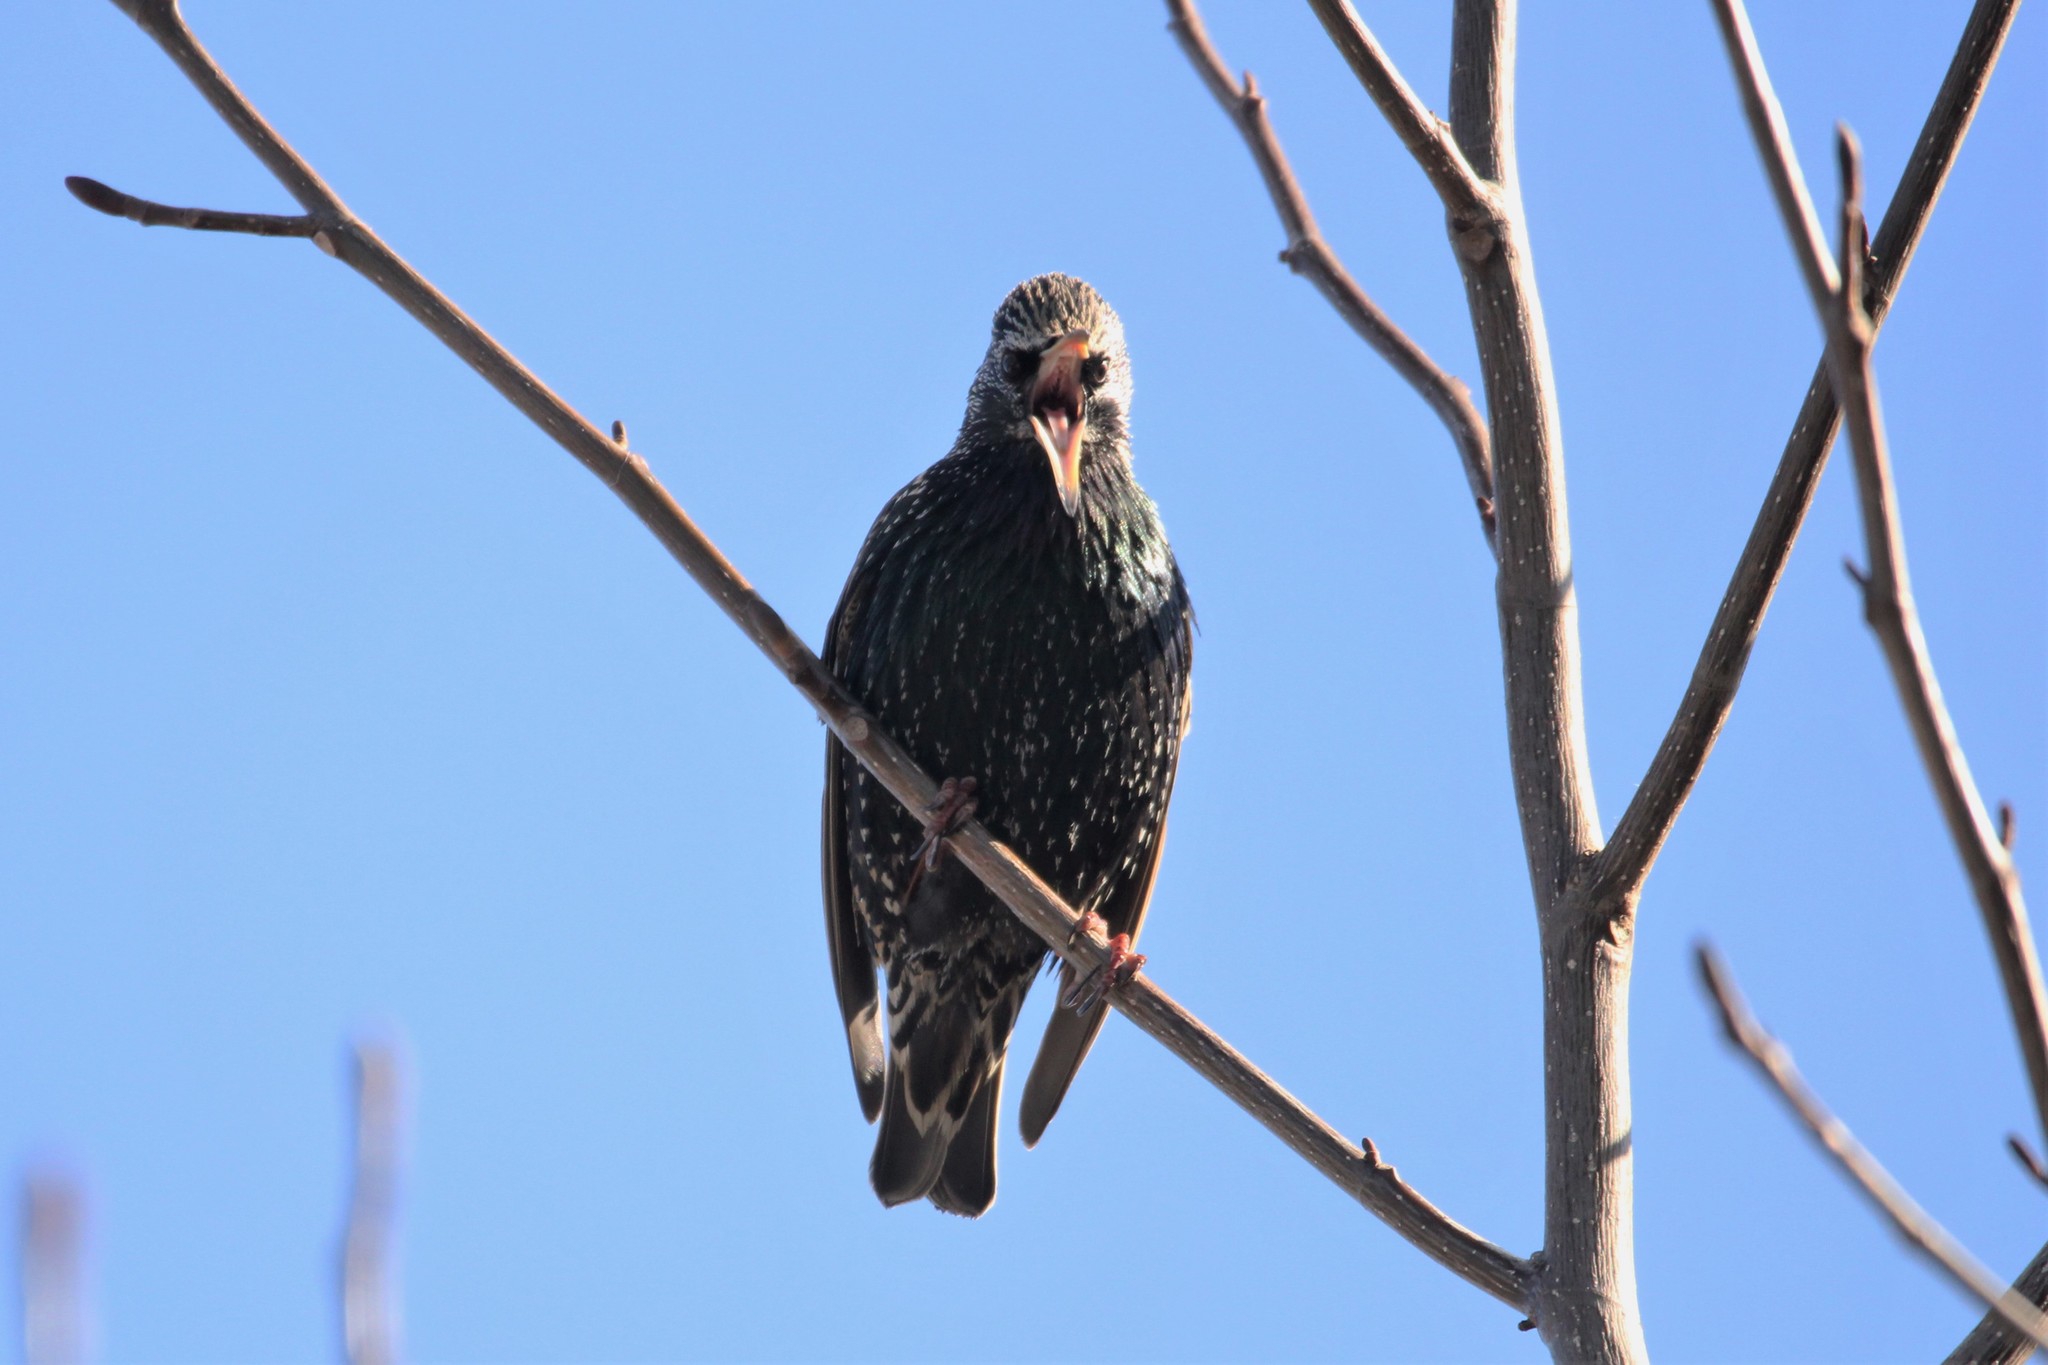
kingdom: Animalia
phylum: Chordata
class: Aves
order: Passeriformes
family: Sturnidae
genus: Sturnus
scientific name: Sturnus vulgaris
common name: Common starling
